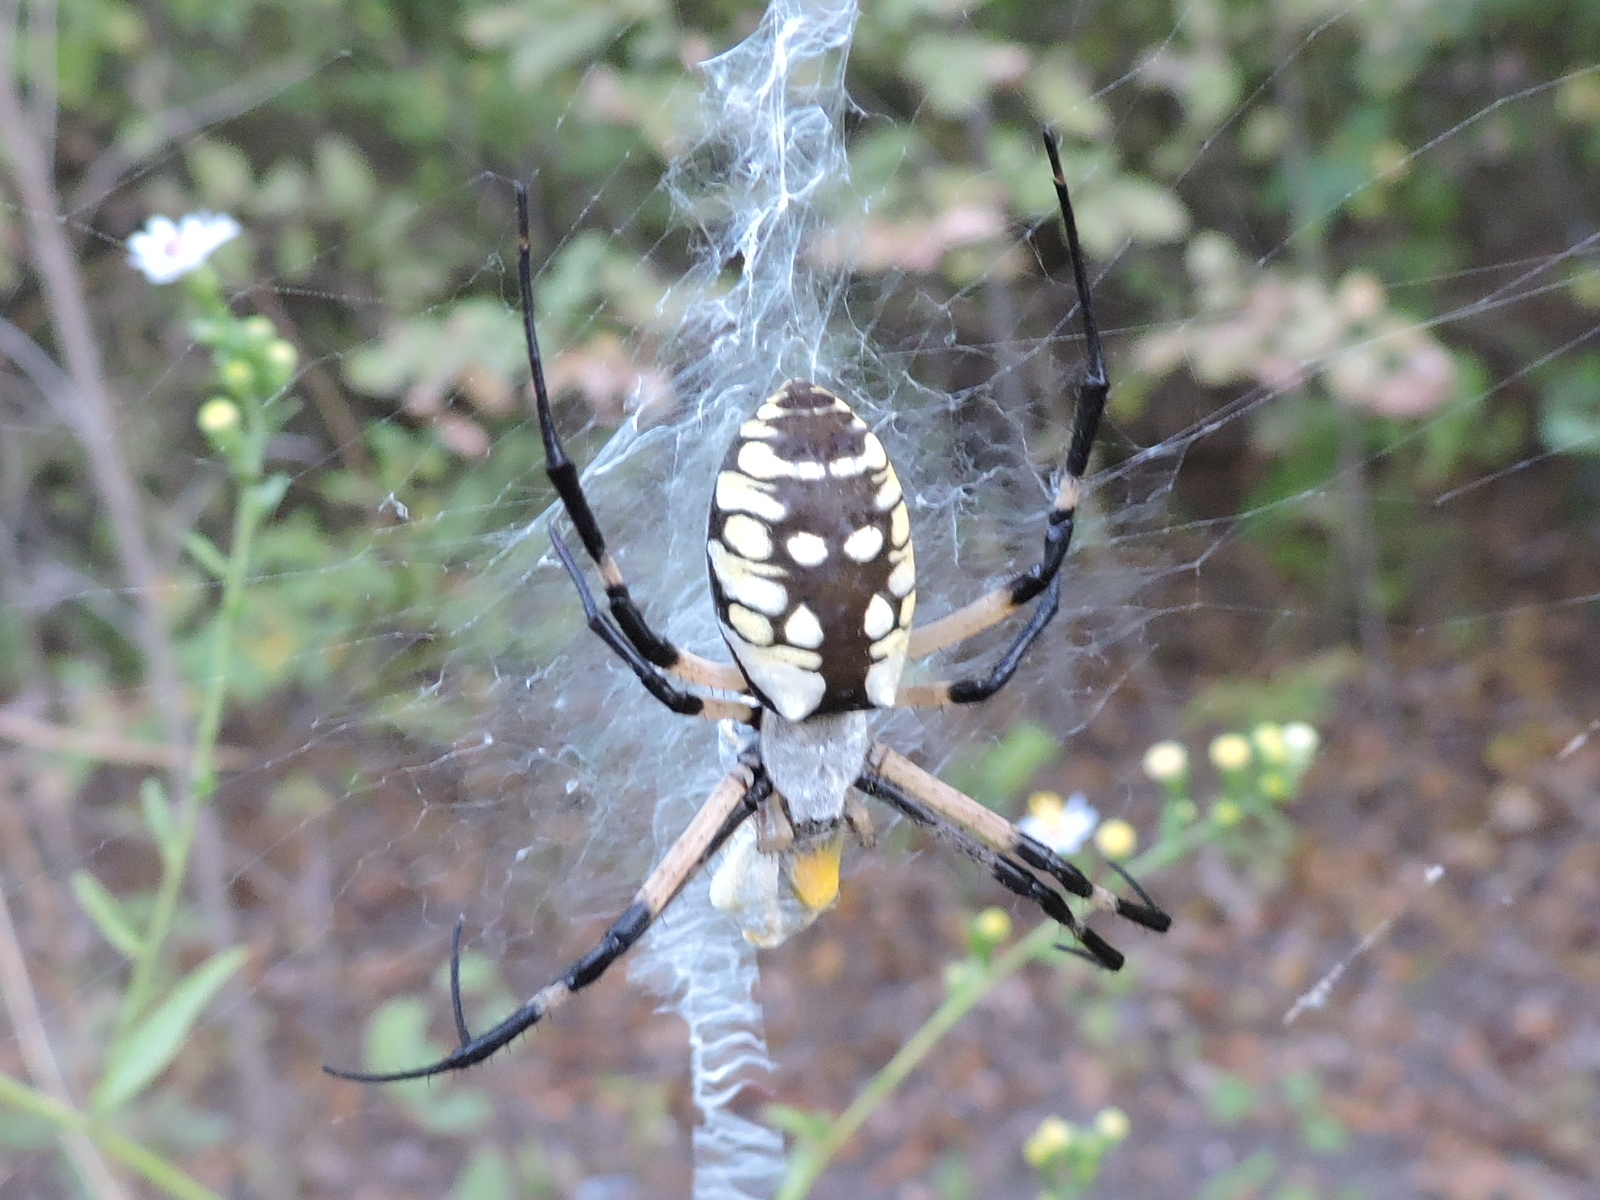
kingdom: Animalia
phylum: Arthropoda
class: Arachnida
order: Araneae
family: Araneidae
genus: Argiope
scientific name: Argiope aurantia
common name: Orb weavers
